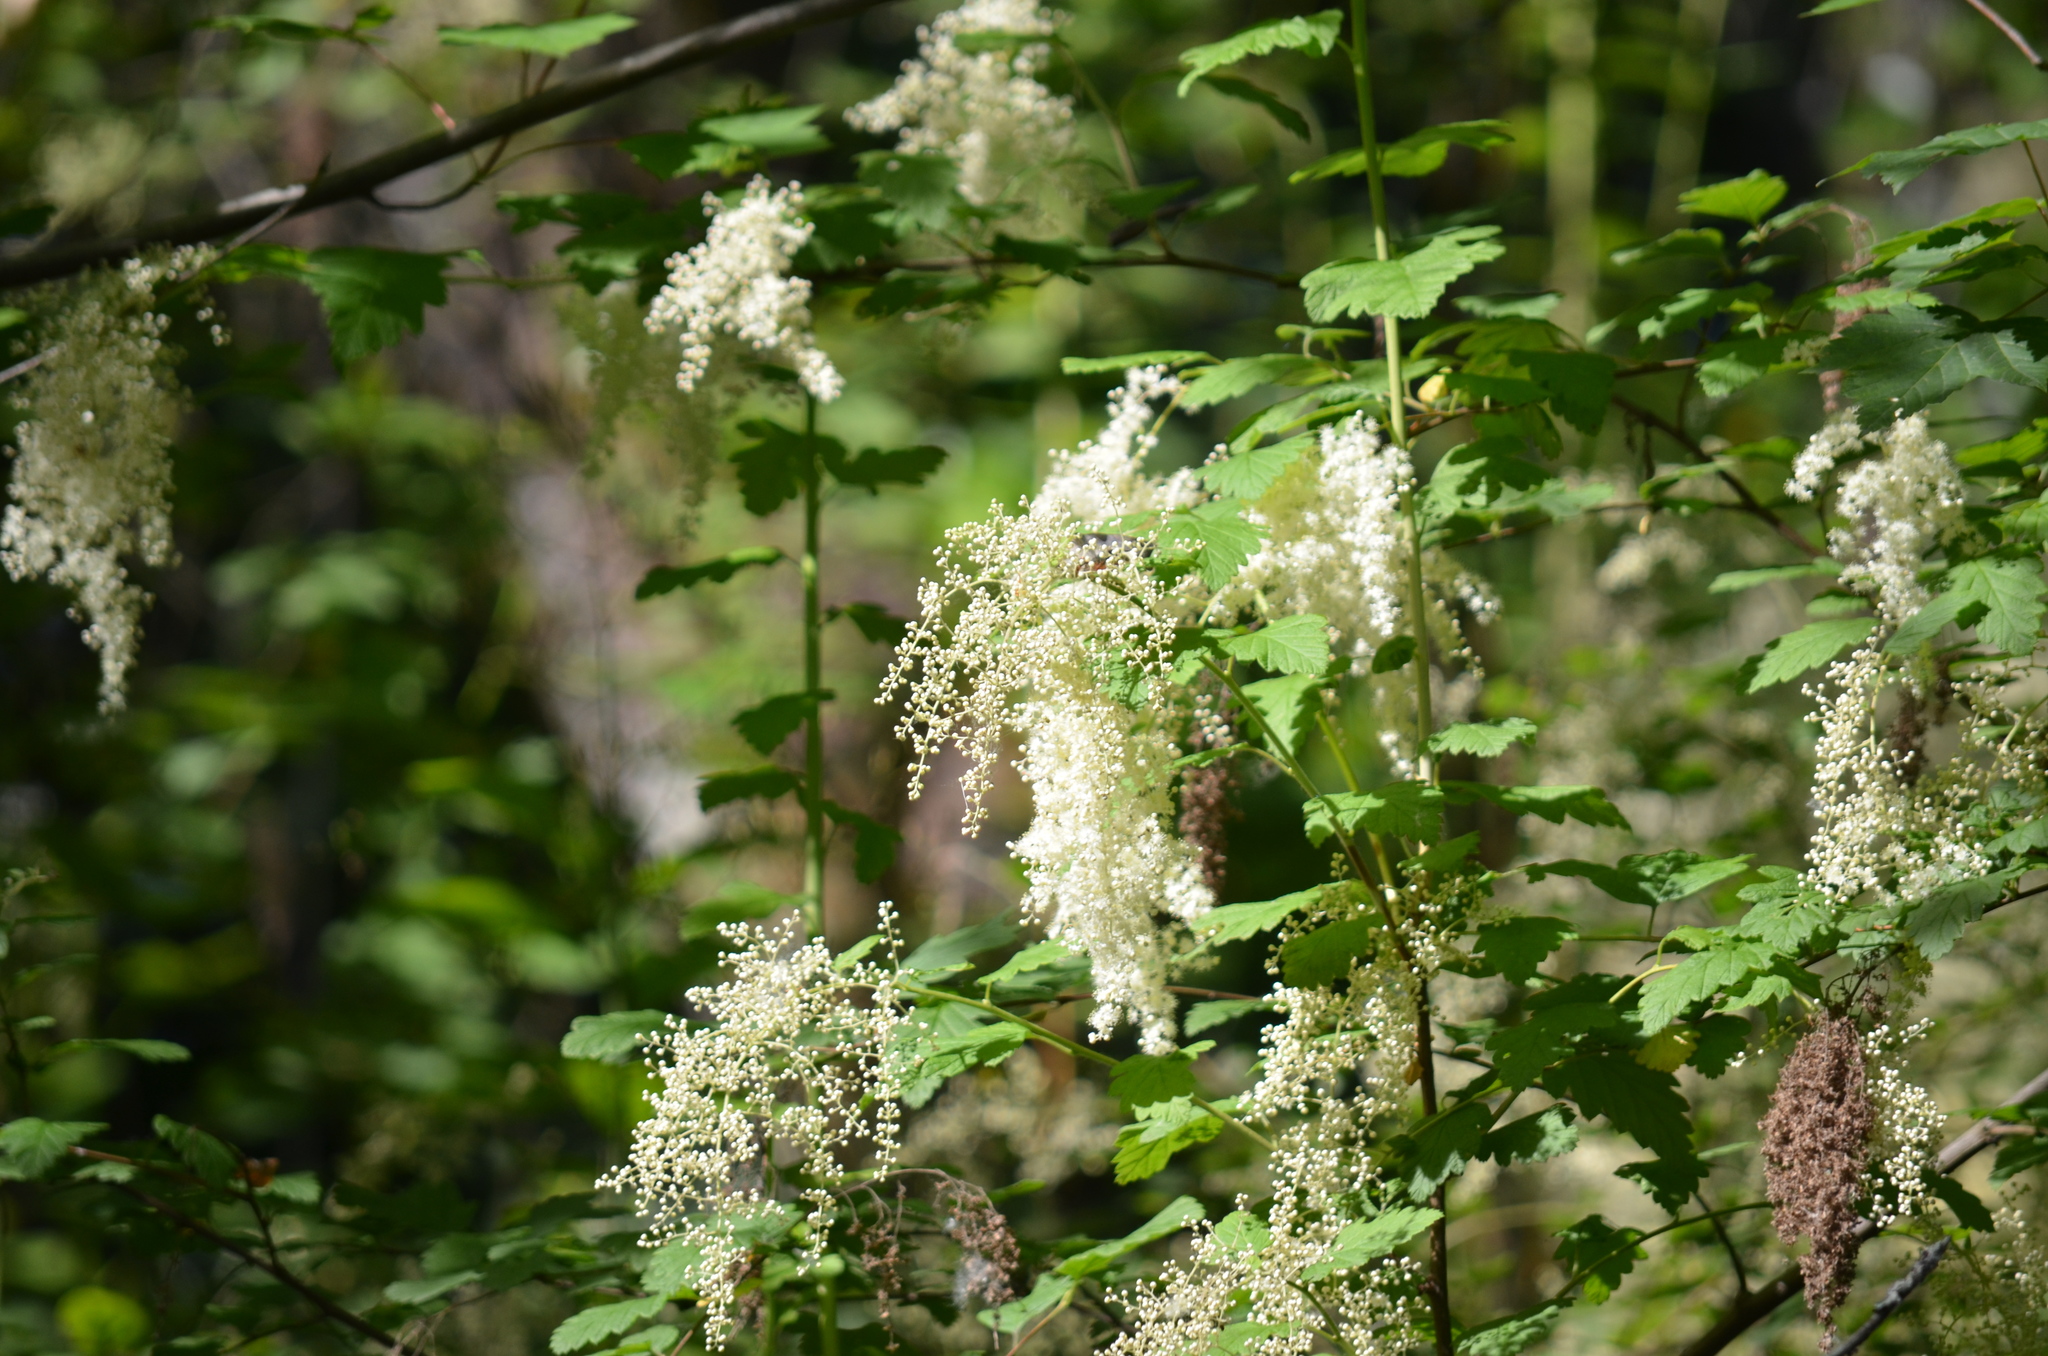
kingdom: Plantae
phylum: Tracheophyta
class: Magnoliopsida
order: Rosales
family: Rosaceae
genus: Holodiscus
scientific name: Holodiscus discolor
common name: Oceanspray
